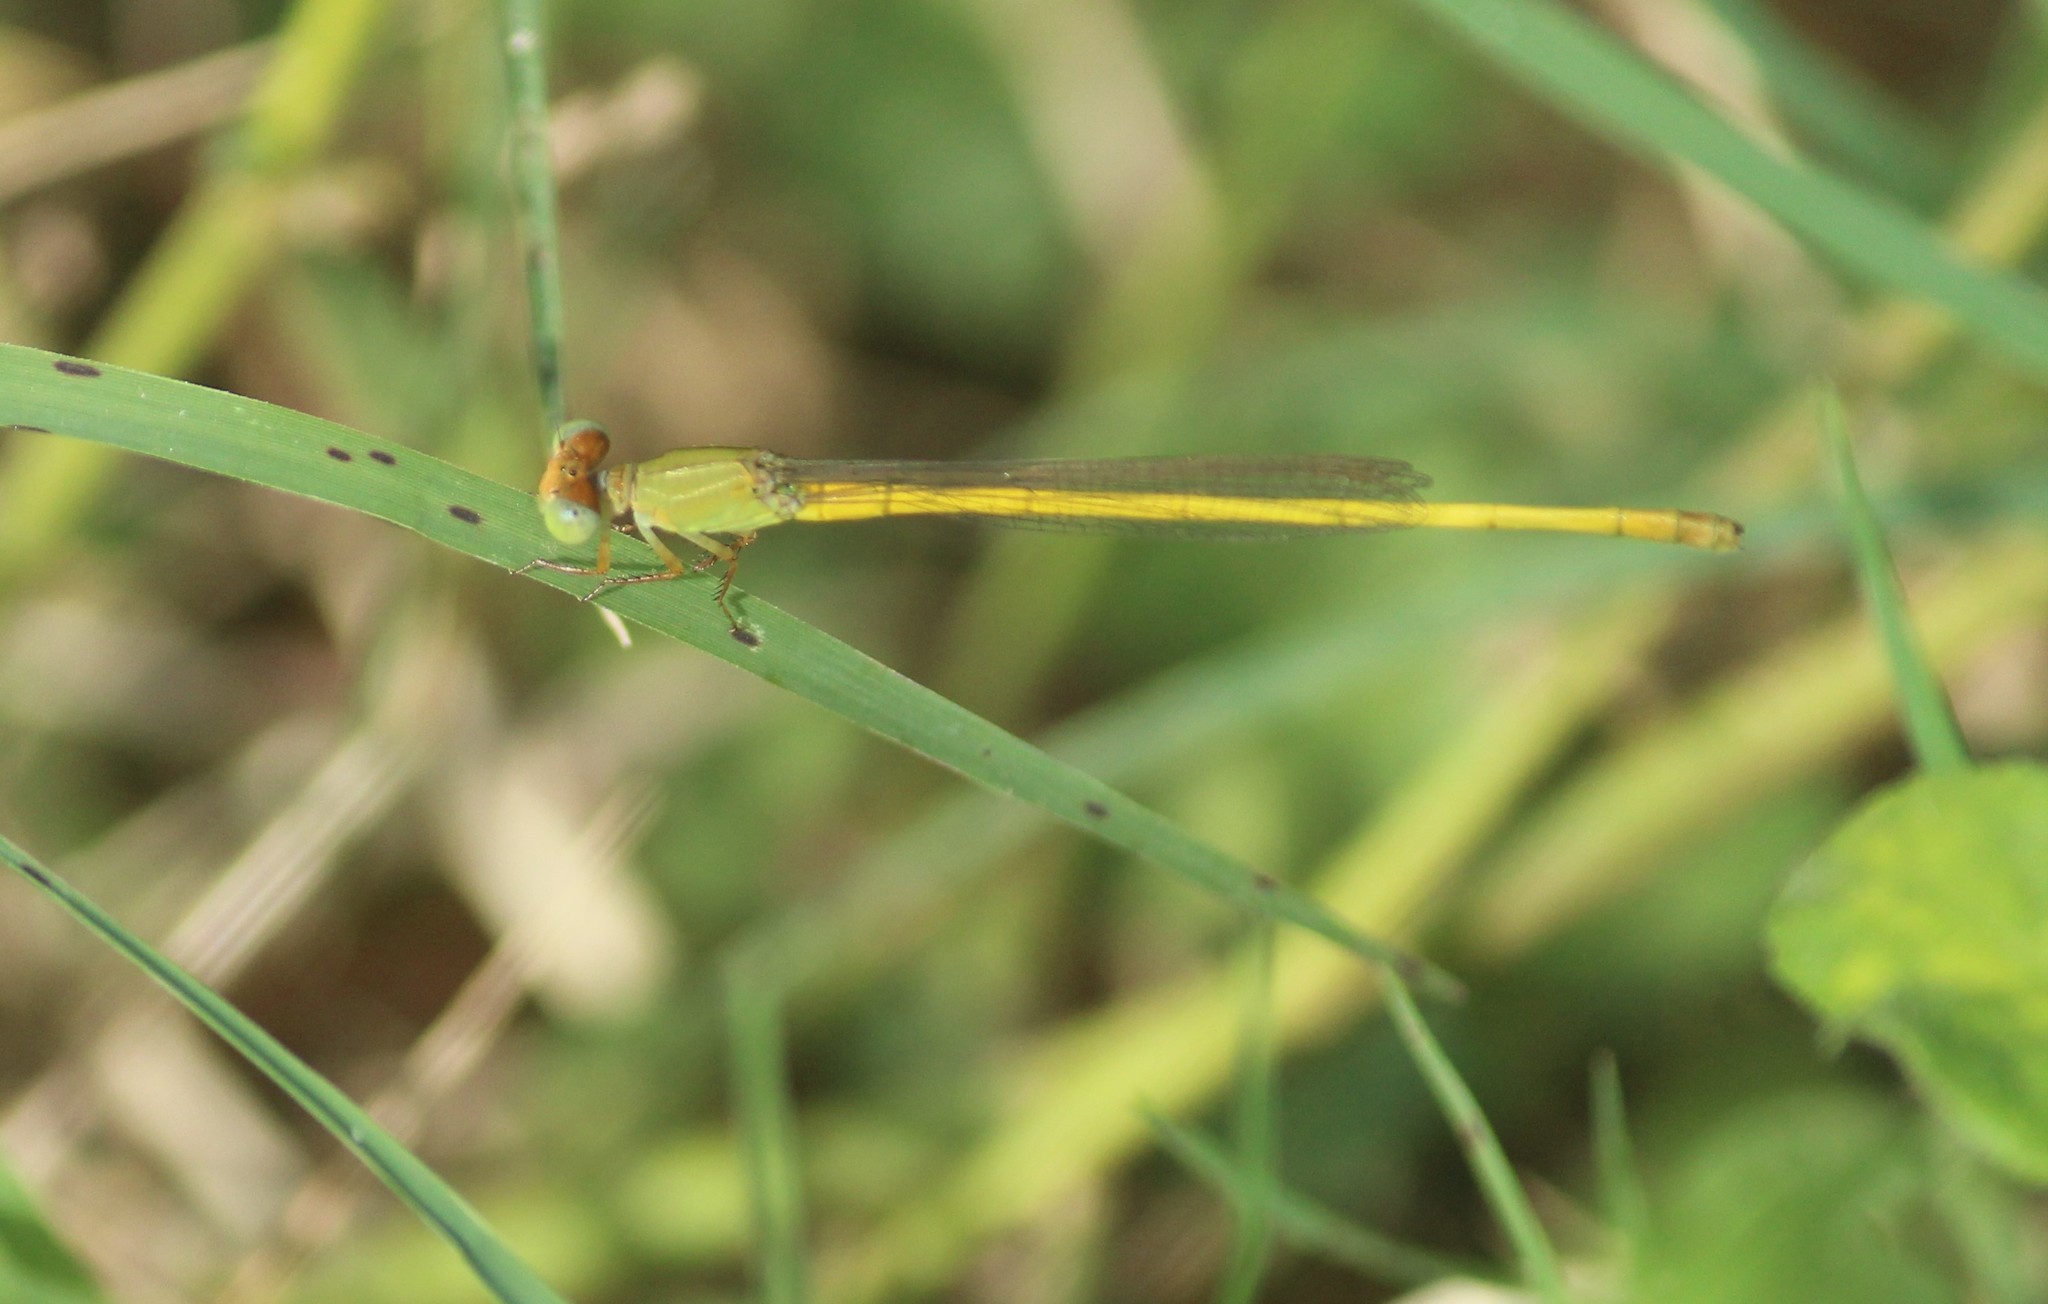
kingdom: Animalia
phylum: Arthropoda
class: Insecta
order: Odonata
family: Coenagrionidae
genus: Ceriagrion
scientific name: Ceriagrion coromandelianum
